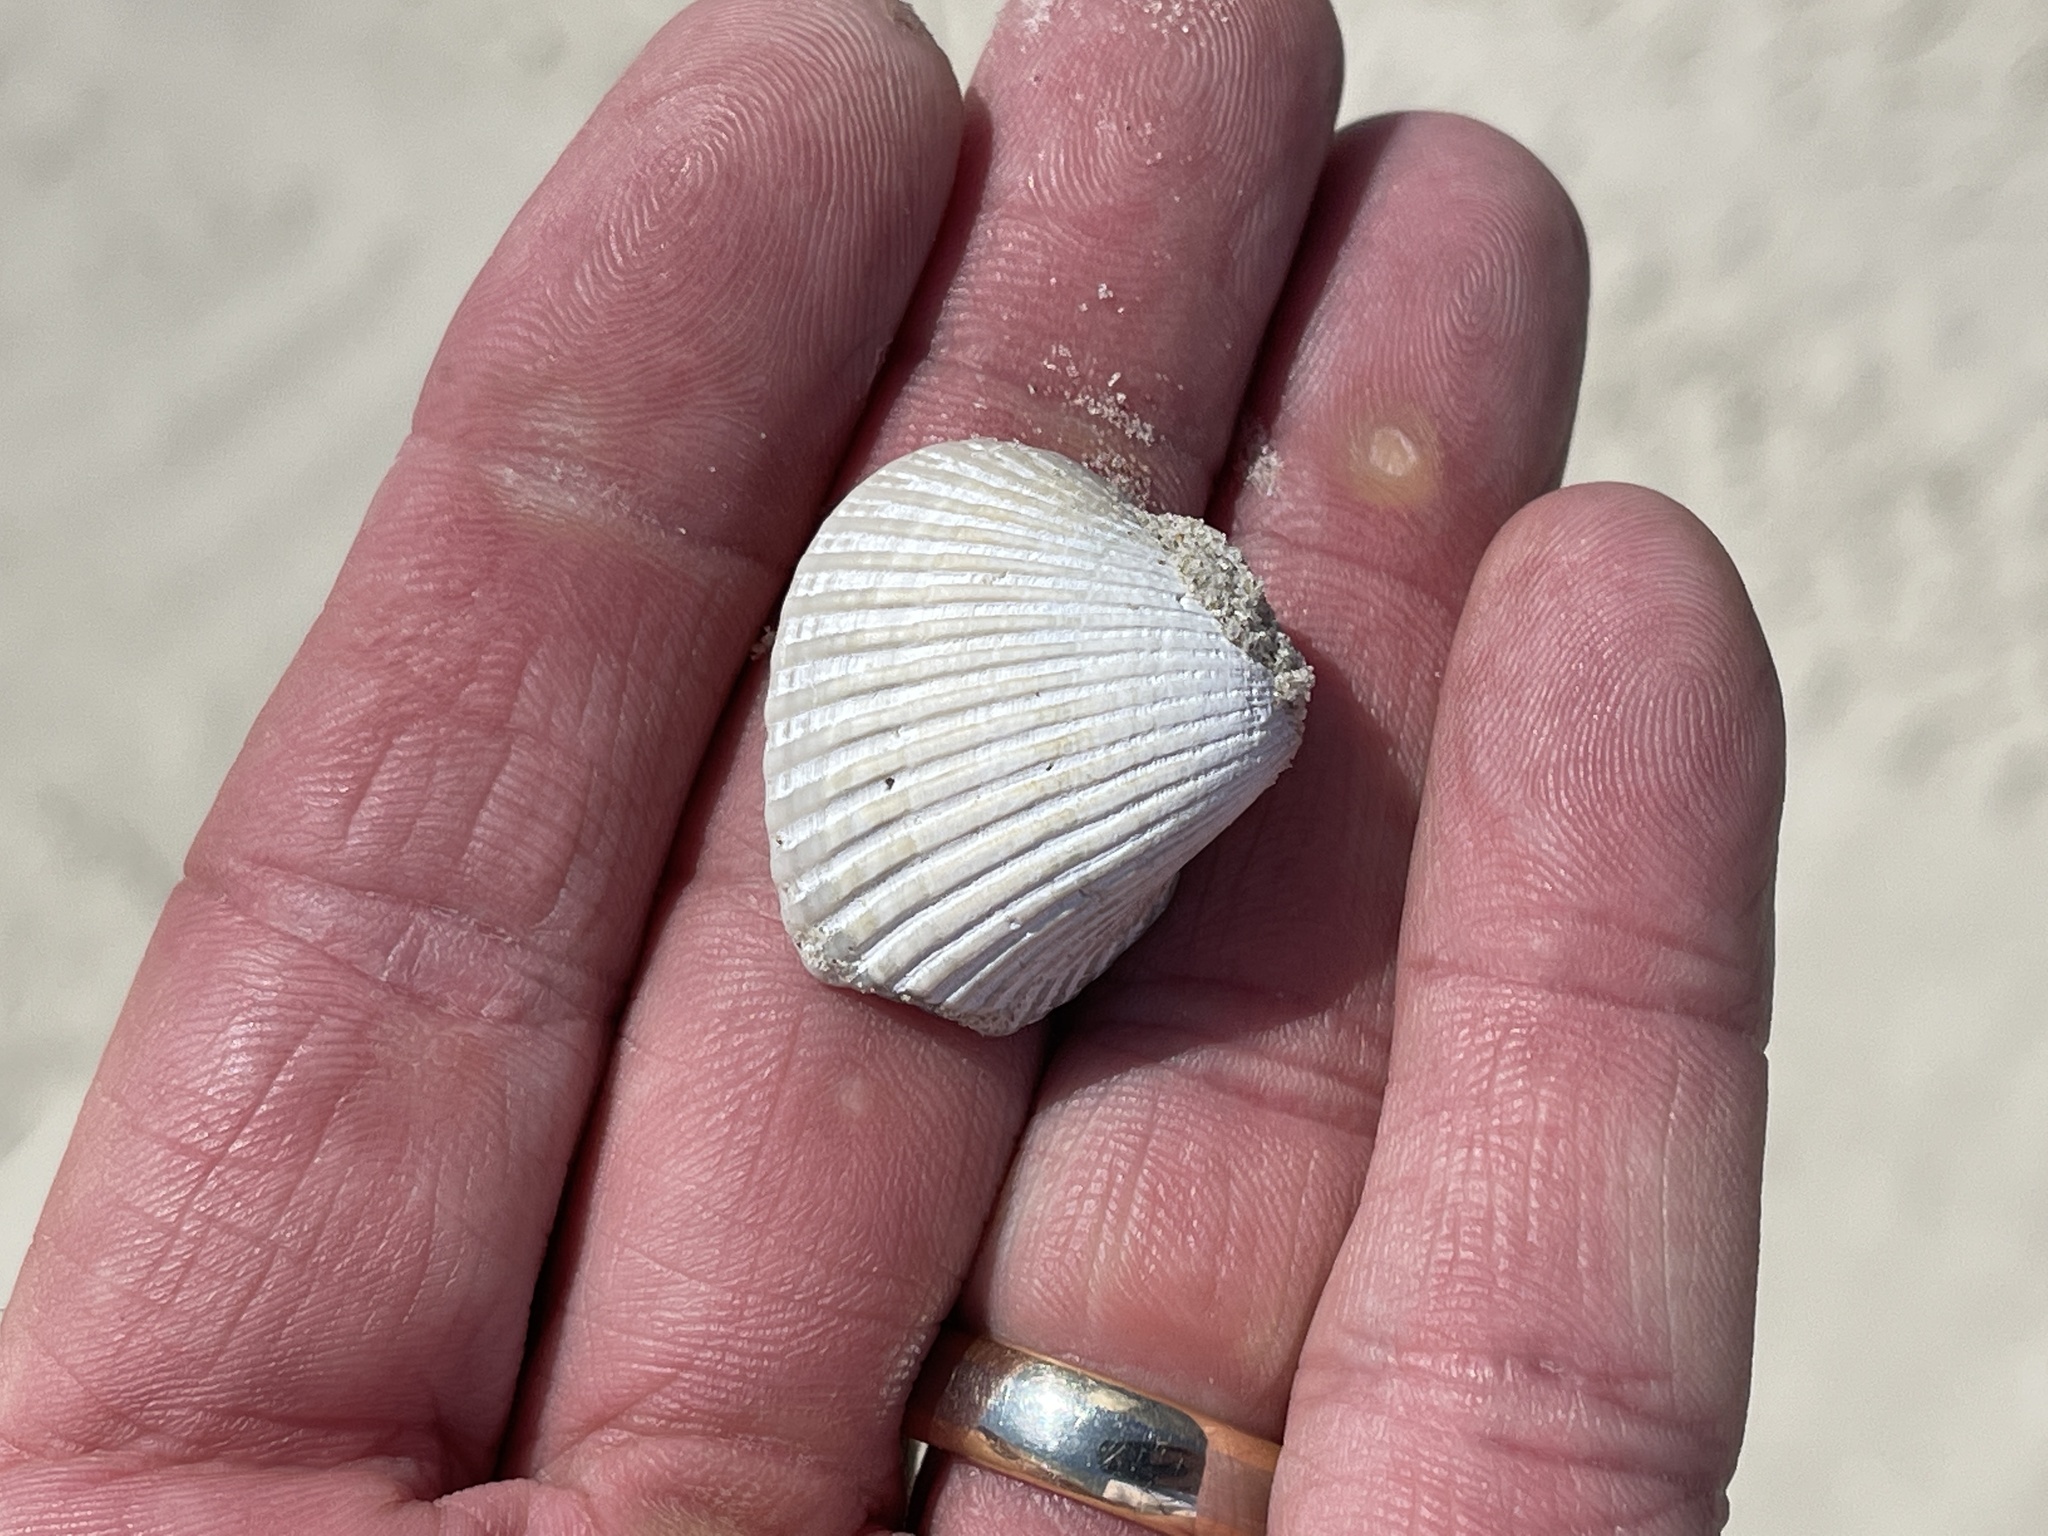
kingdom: Animalia
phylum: Mollusca
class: Bivalvia
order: Arcida
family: Noetiidae
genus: Noetia
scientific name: Noetia ponderosa
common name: Ponderous ark
